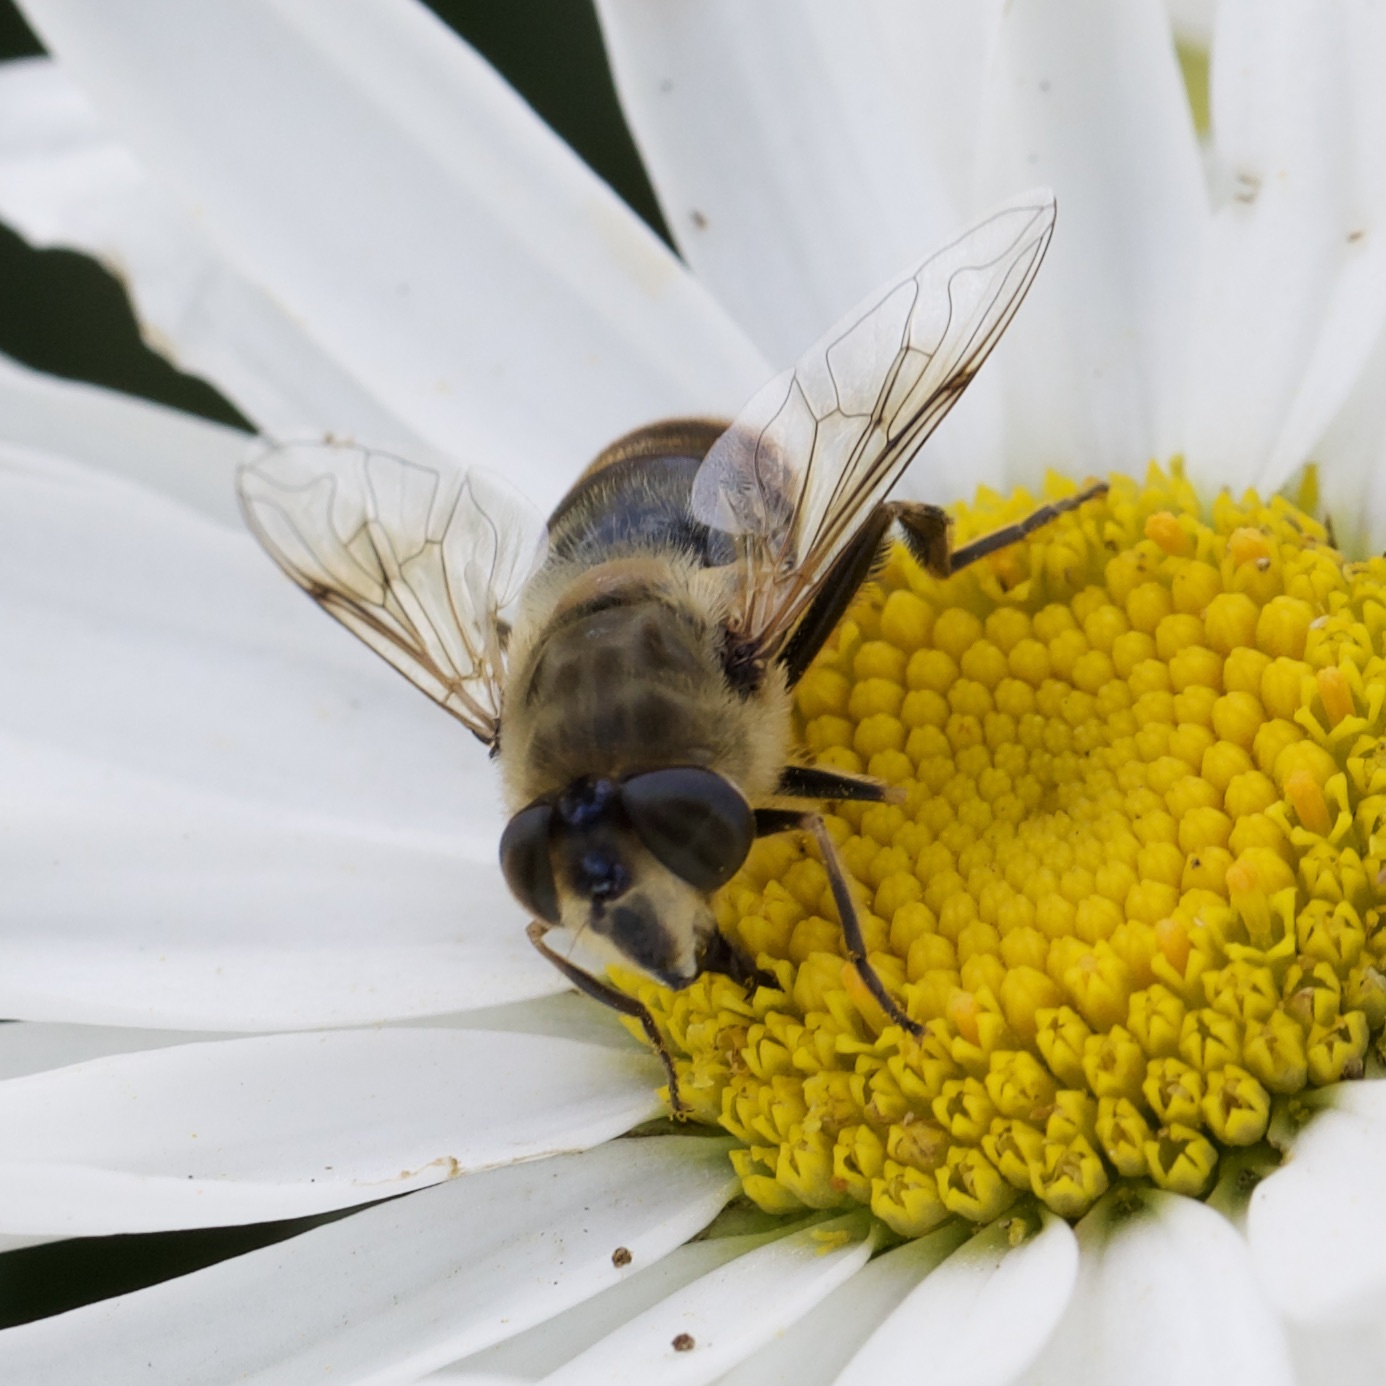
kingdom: Animalia
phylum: Arthropoda
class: Insecta
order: Diptera
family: Syrphidae
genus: Eristalis
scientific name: Eristalis tenax
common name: Drone fly
